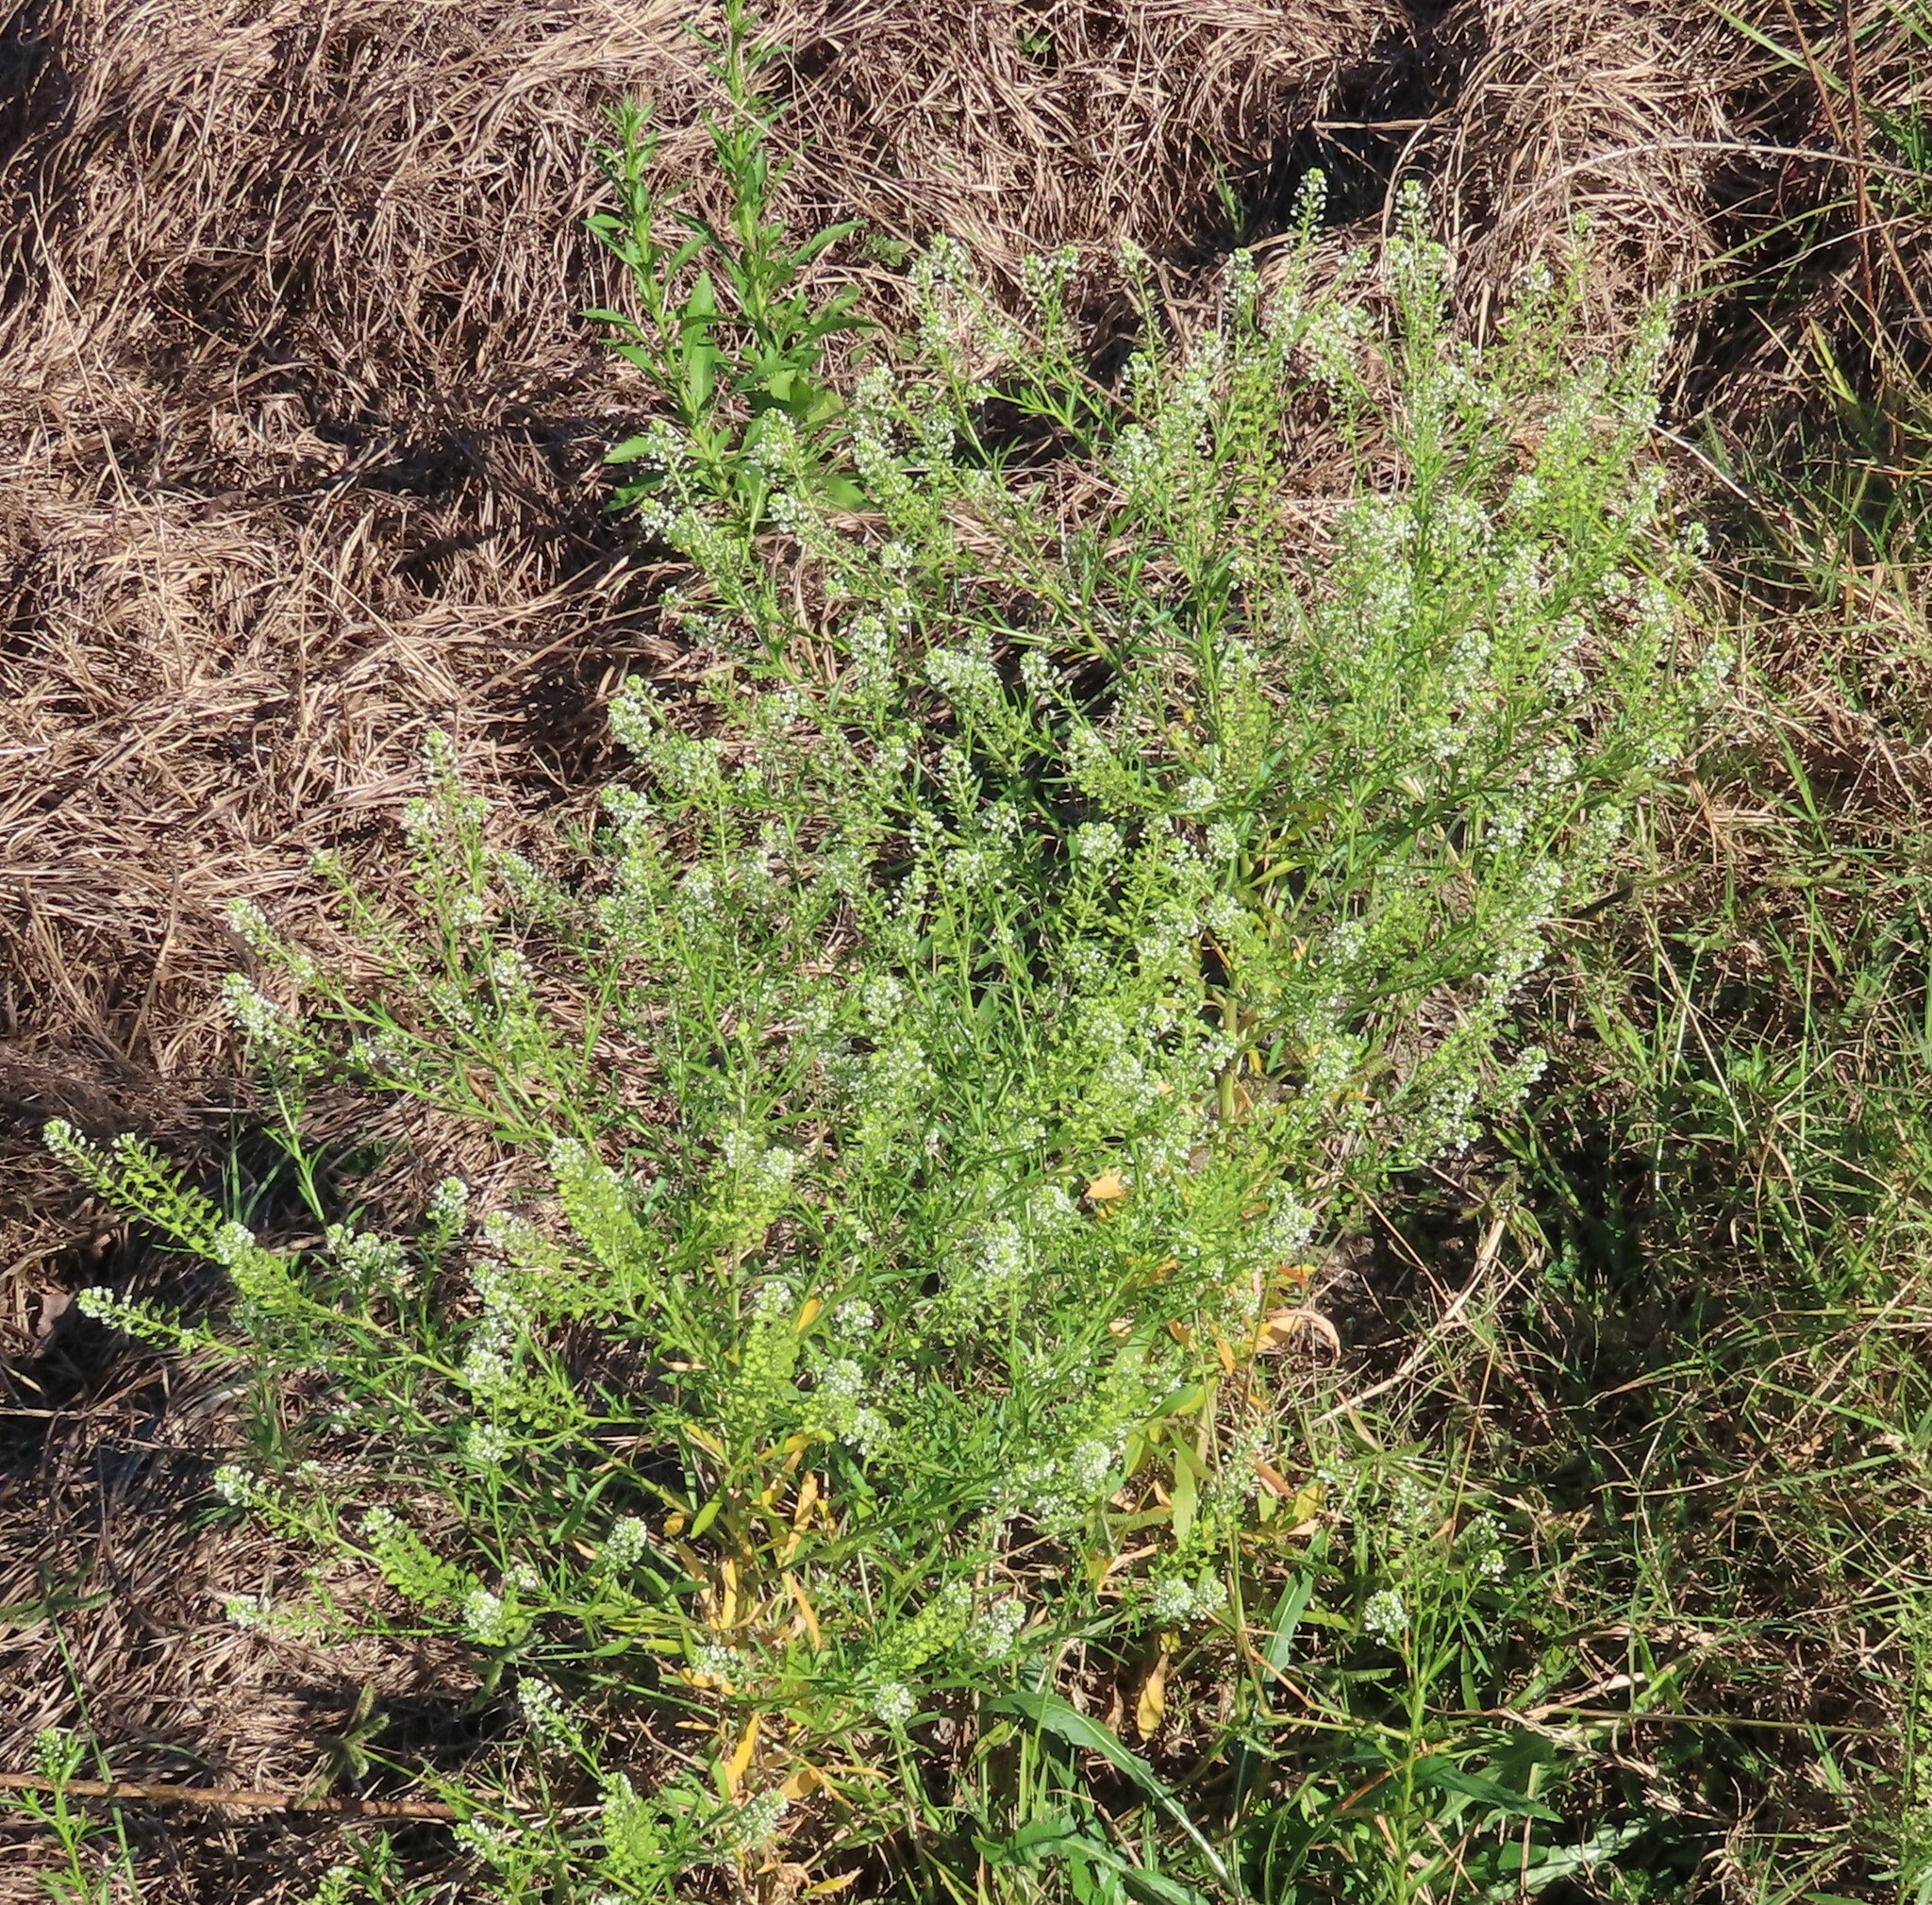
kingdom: Plantae
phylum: Tracheophyta
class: Magnoliopsida
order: Brassicales
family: Brassicaceae
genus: Lepidium
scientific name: Lepidium virginicum
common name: Least pepperwort
